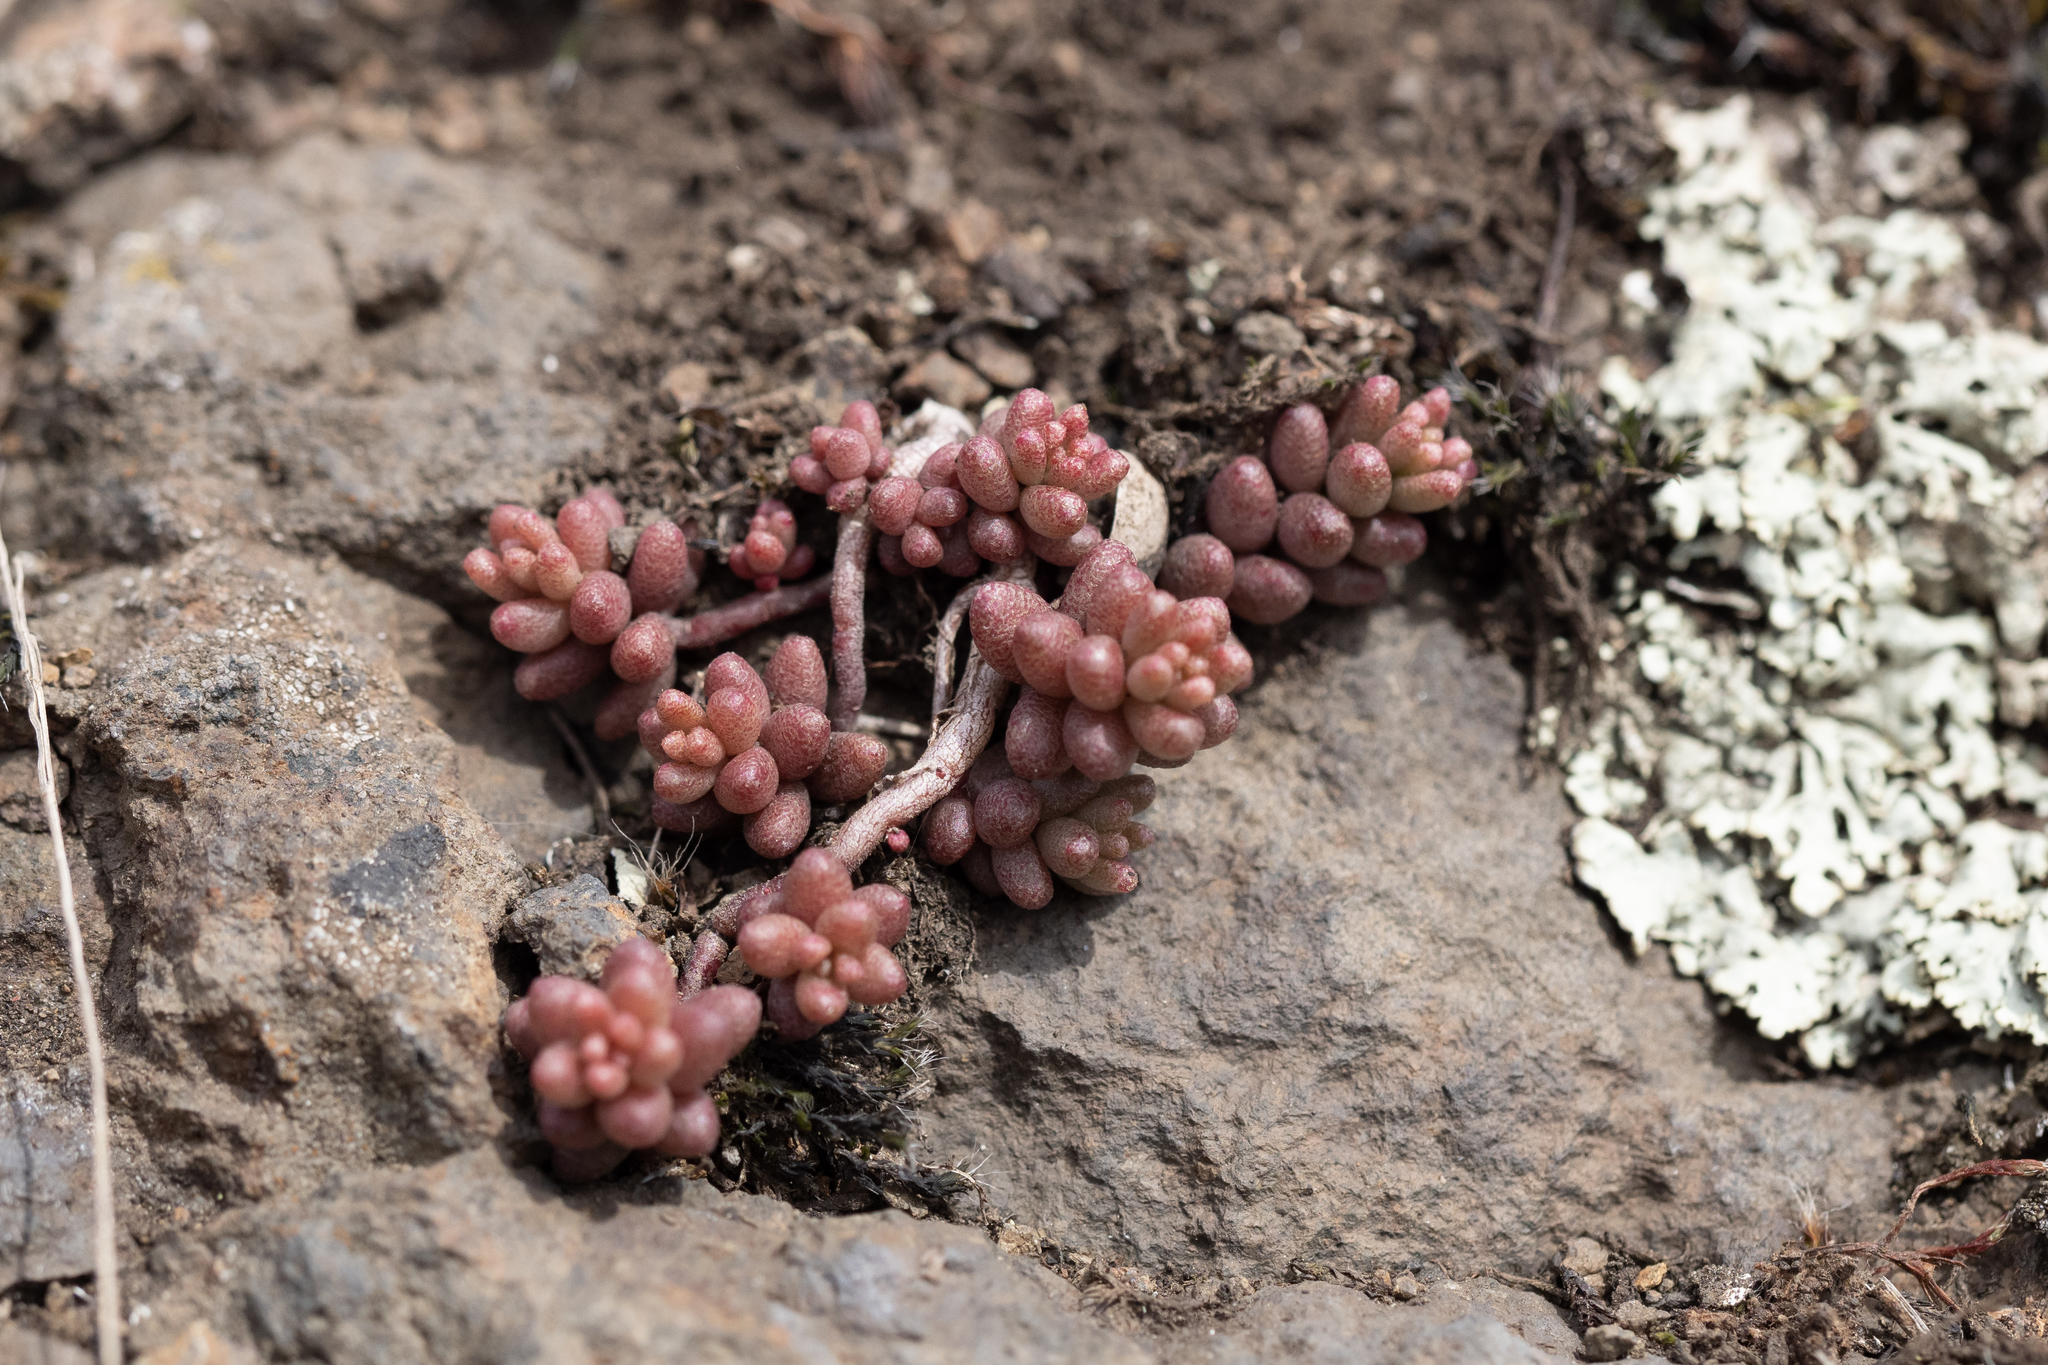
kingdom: Plantae
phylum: Tracheophyta
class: Magnoliopsida
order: Saxifragales
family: Crassulaceae
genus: Sedum
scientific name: Sedum album
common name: White stonecrop
